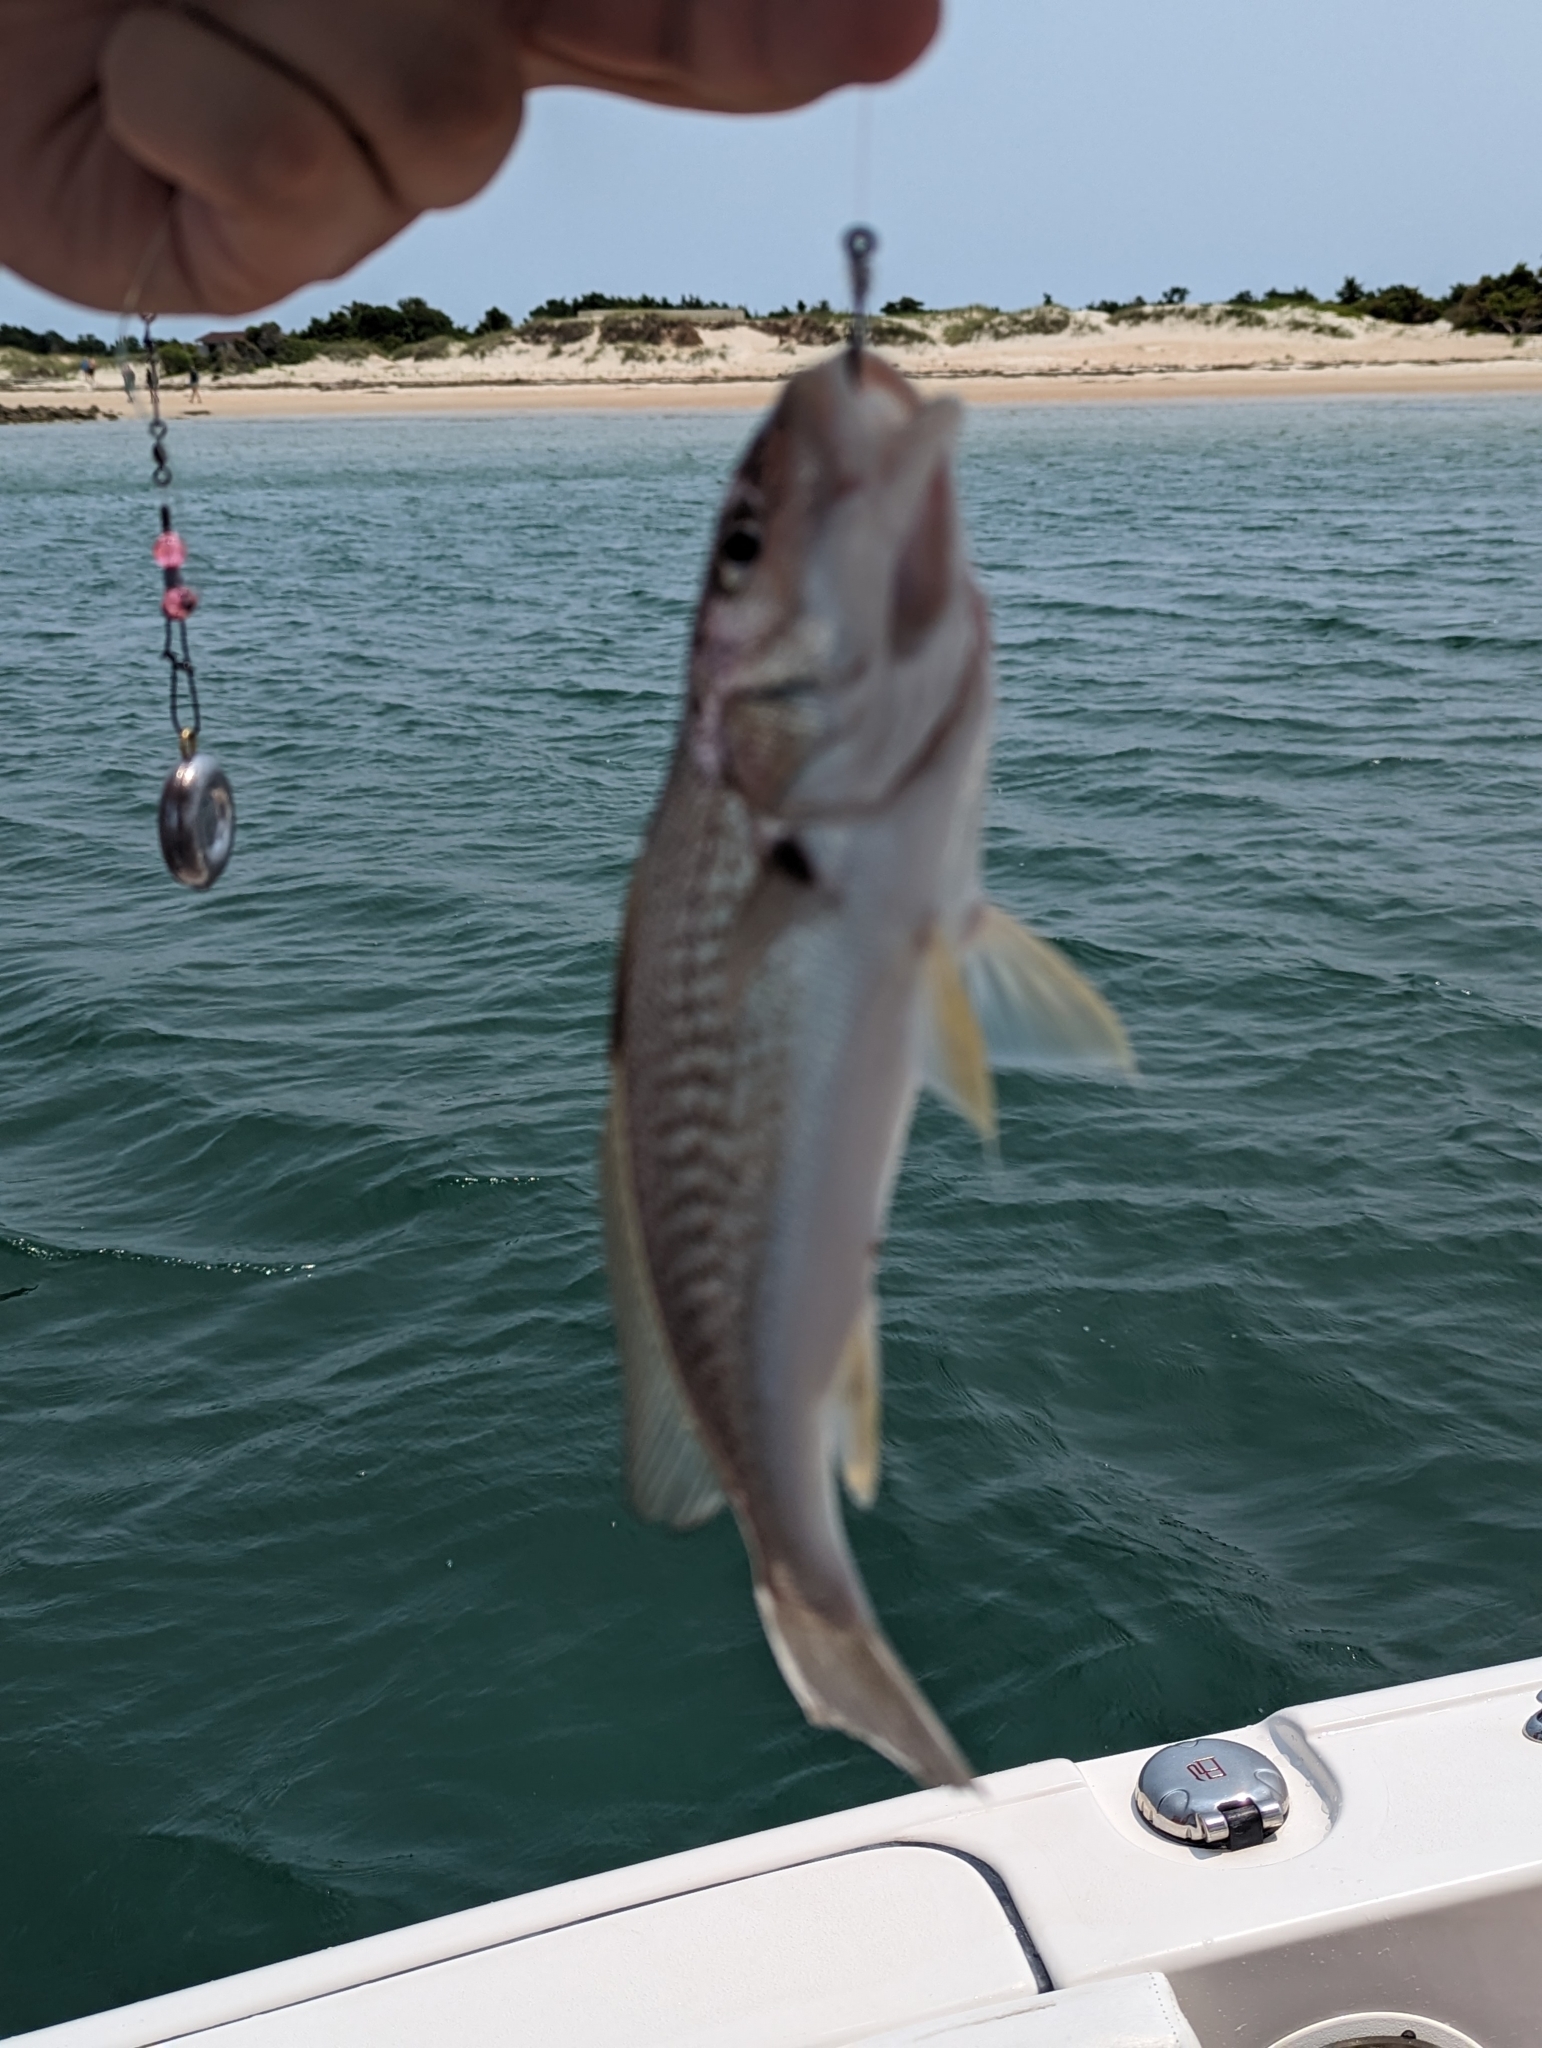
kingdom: Animalia
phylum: Chordata
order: Perciformes
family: Sciaenidae
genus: Micropogonias
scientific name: Micropogonias undulatus
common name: Atlantic croaker
